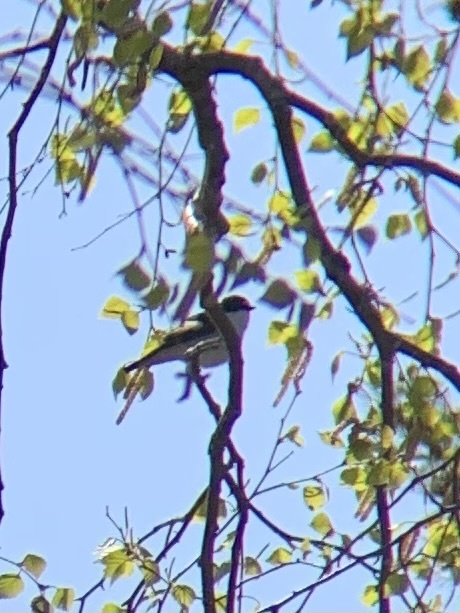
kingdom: Animalia
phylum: Chordata
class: Aves
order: Passeriformes
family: Muscicapidae
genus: Ficedula
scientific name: Ficedula hypoleuca
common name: European pied flycatcher
